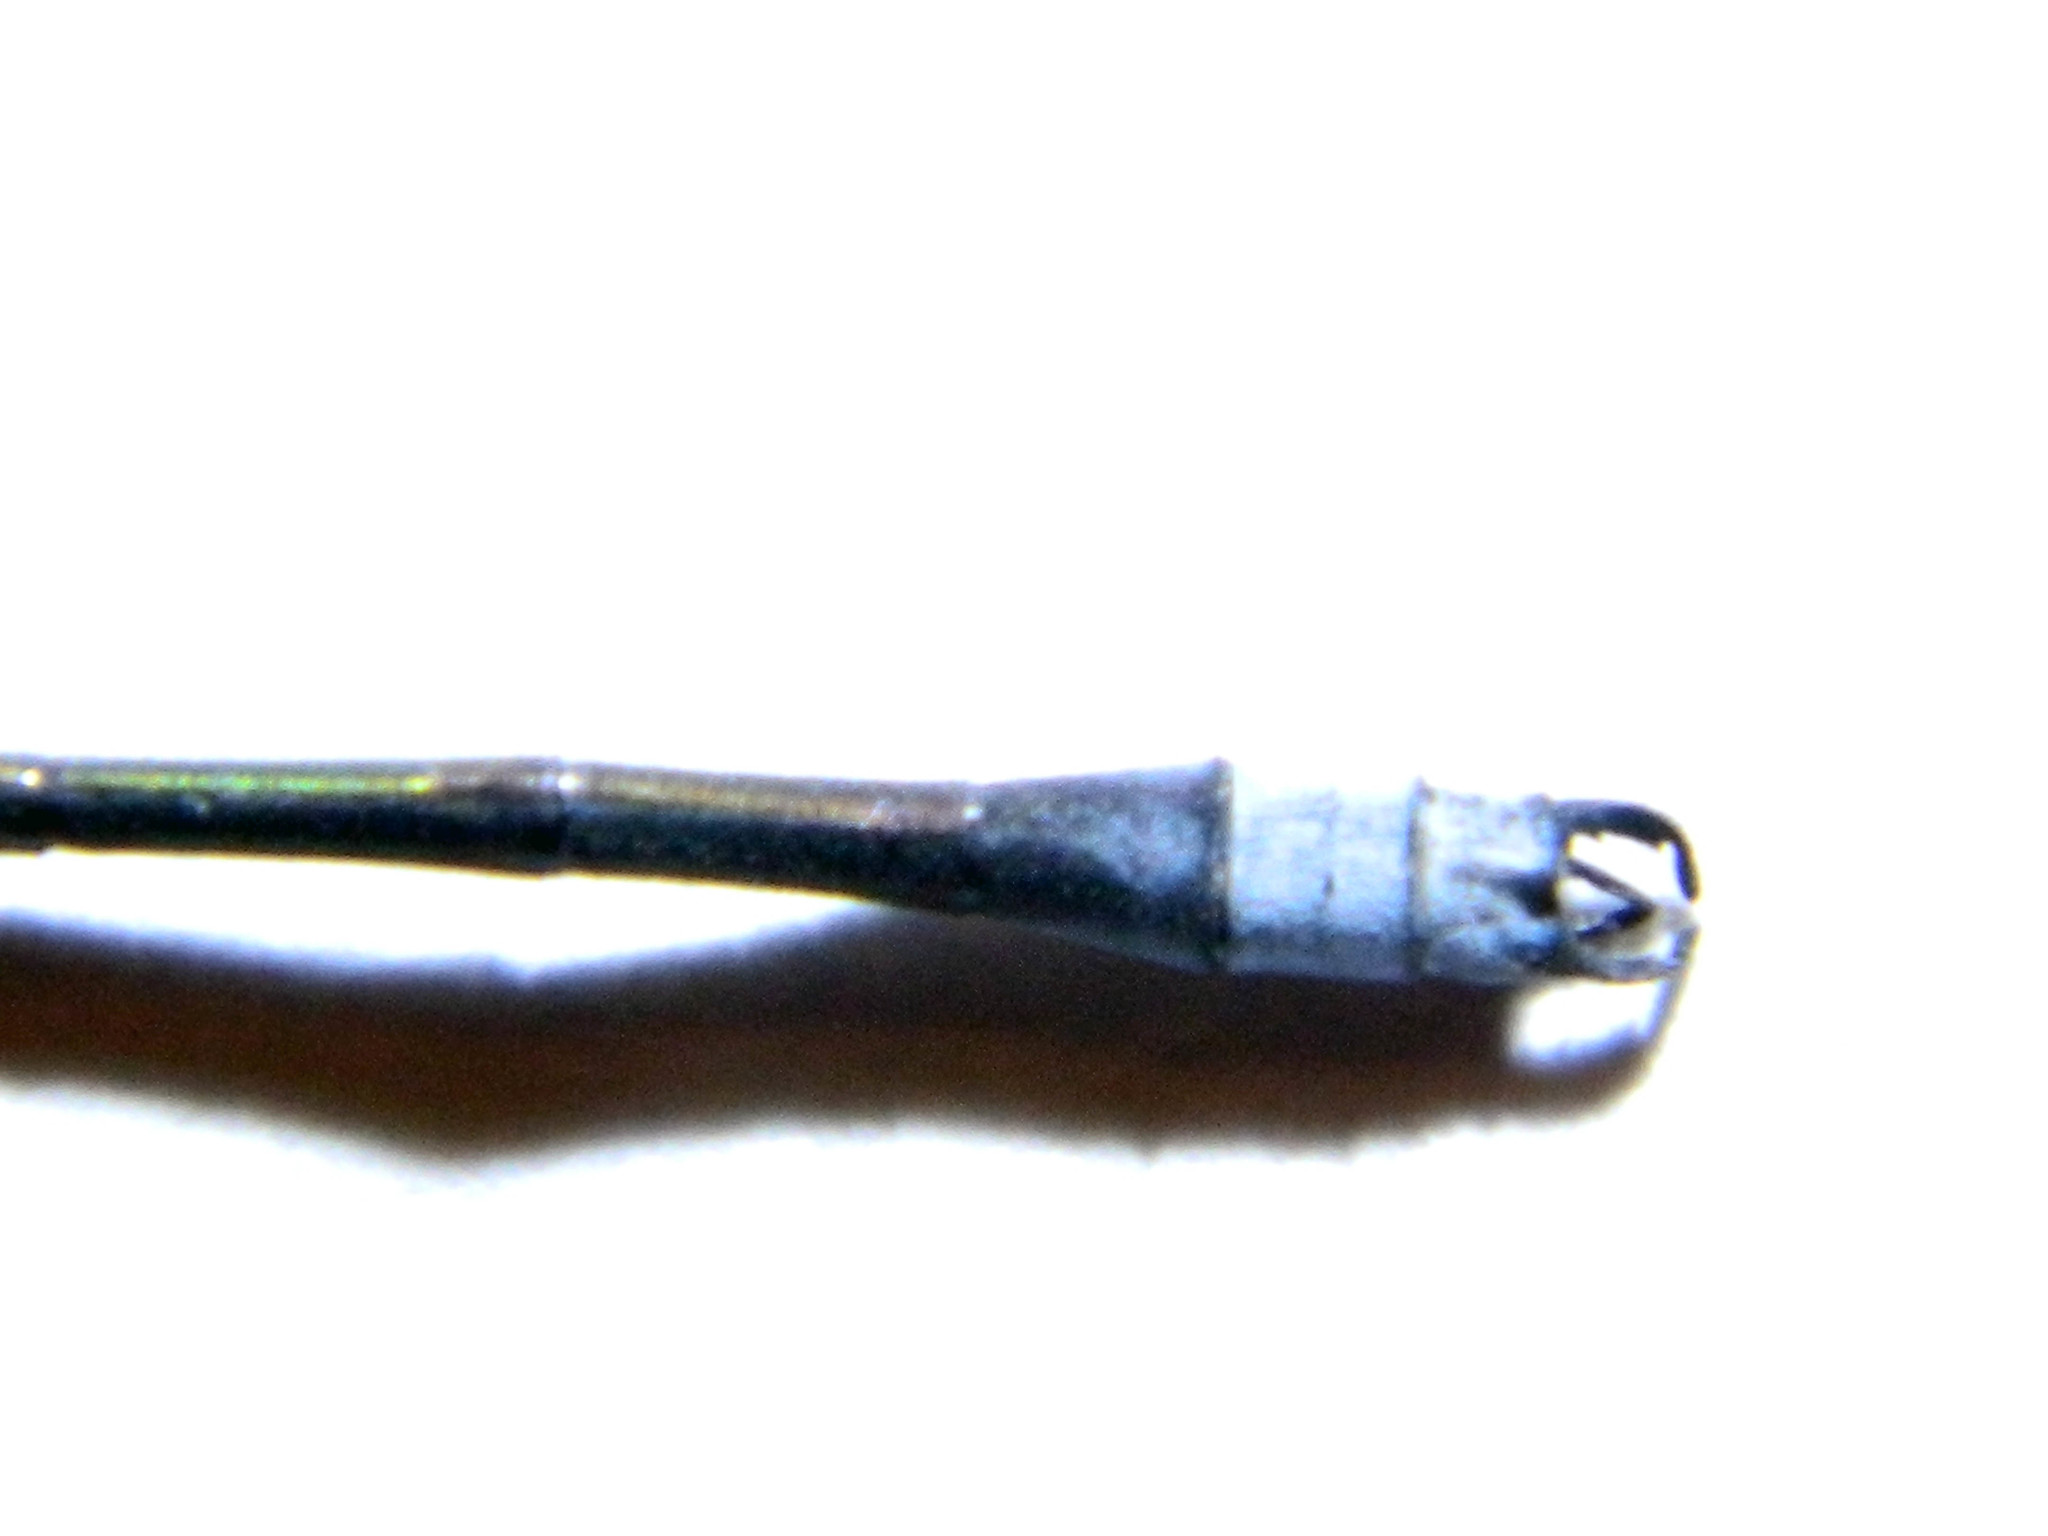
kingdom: Animalia
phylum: Arthropoda
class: Insecta
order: Odonata
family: Lestidae
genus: Lestes
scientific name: Lestes disjunctus
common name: Northern spreadwing
